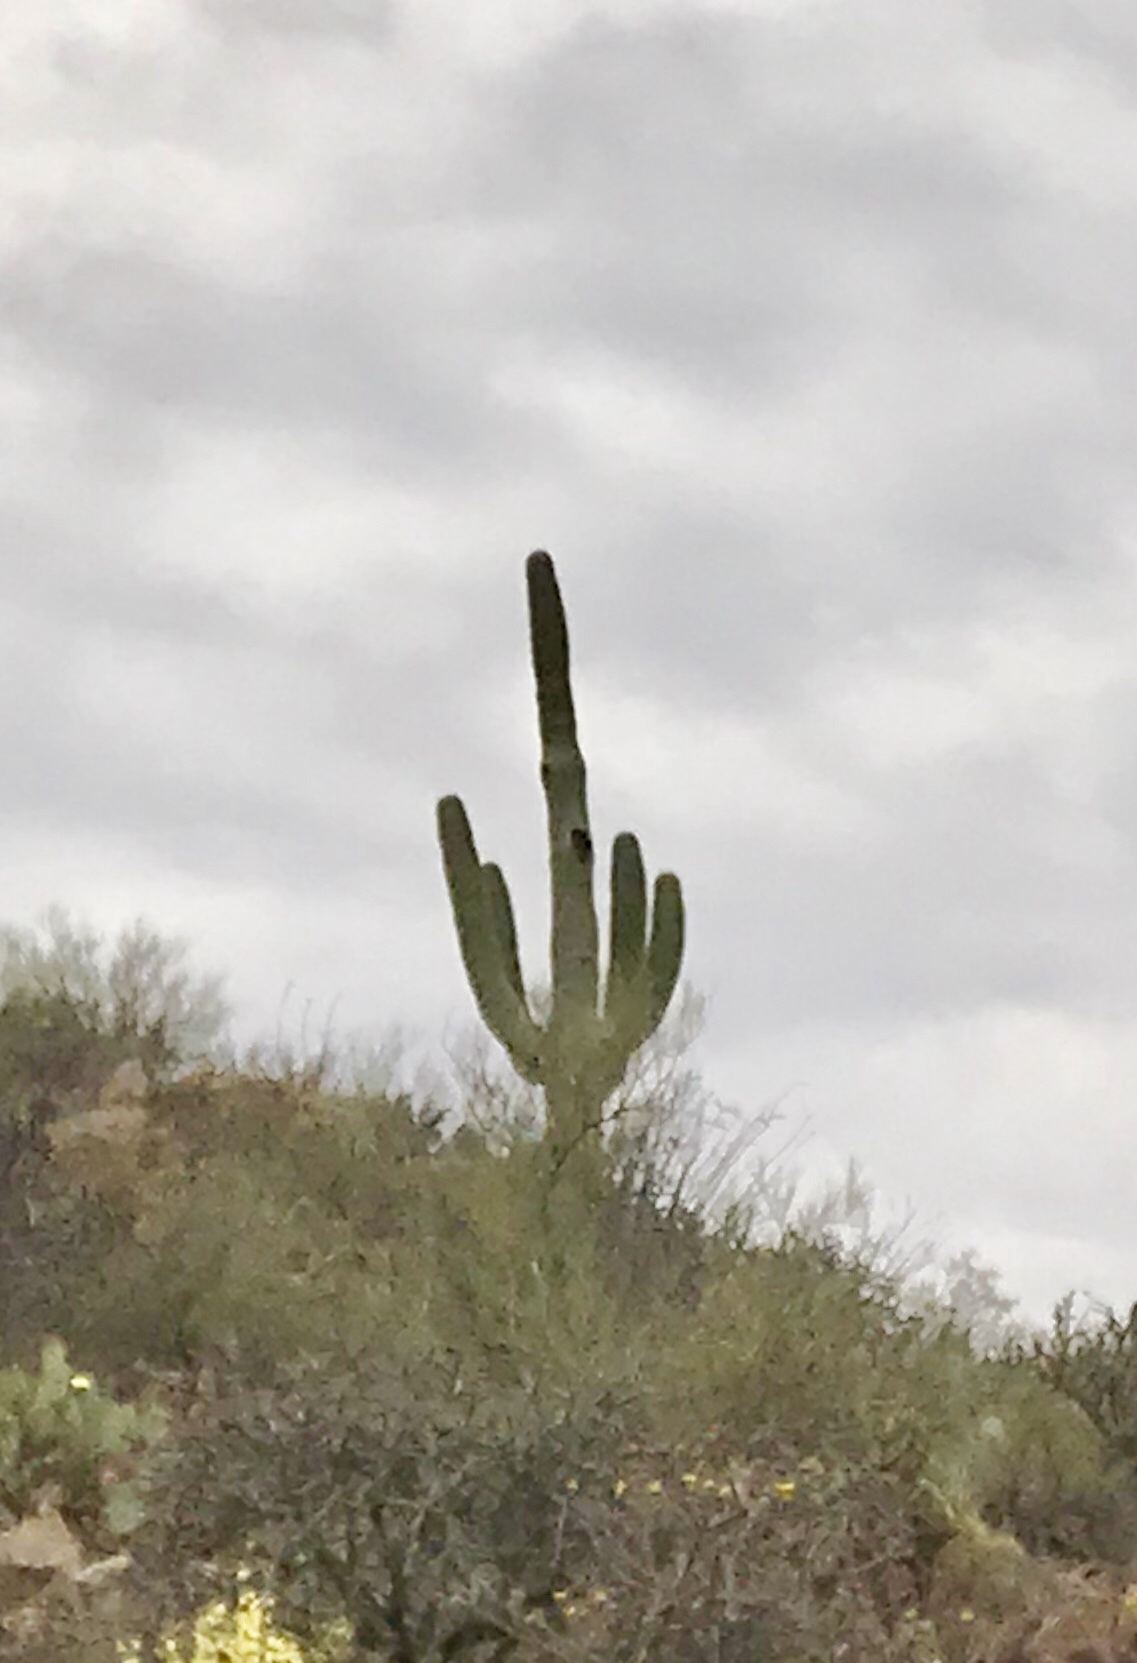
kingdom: Plantae
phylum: Tracheophyta
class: Magnoliopsida
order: Caryophyllales
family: Cactaceae
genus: Carnegiea
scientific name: Carnegiea gigantea
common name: Saguaro
